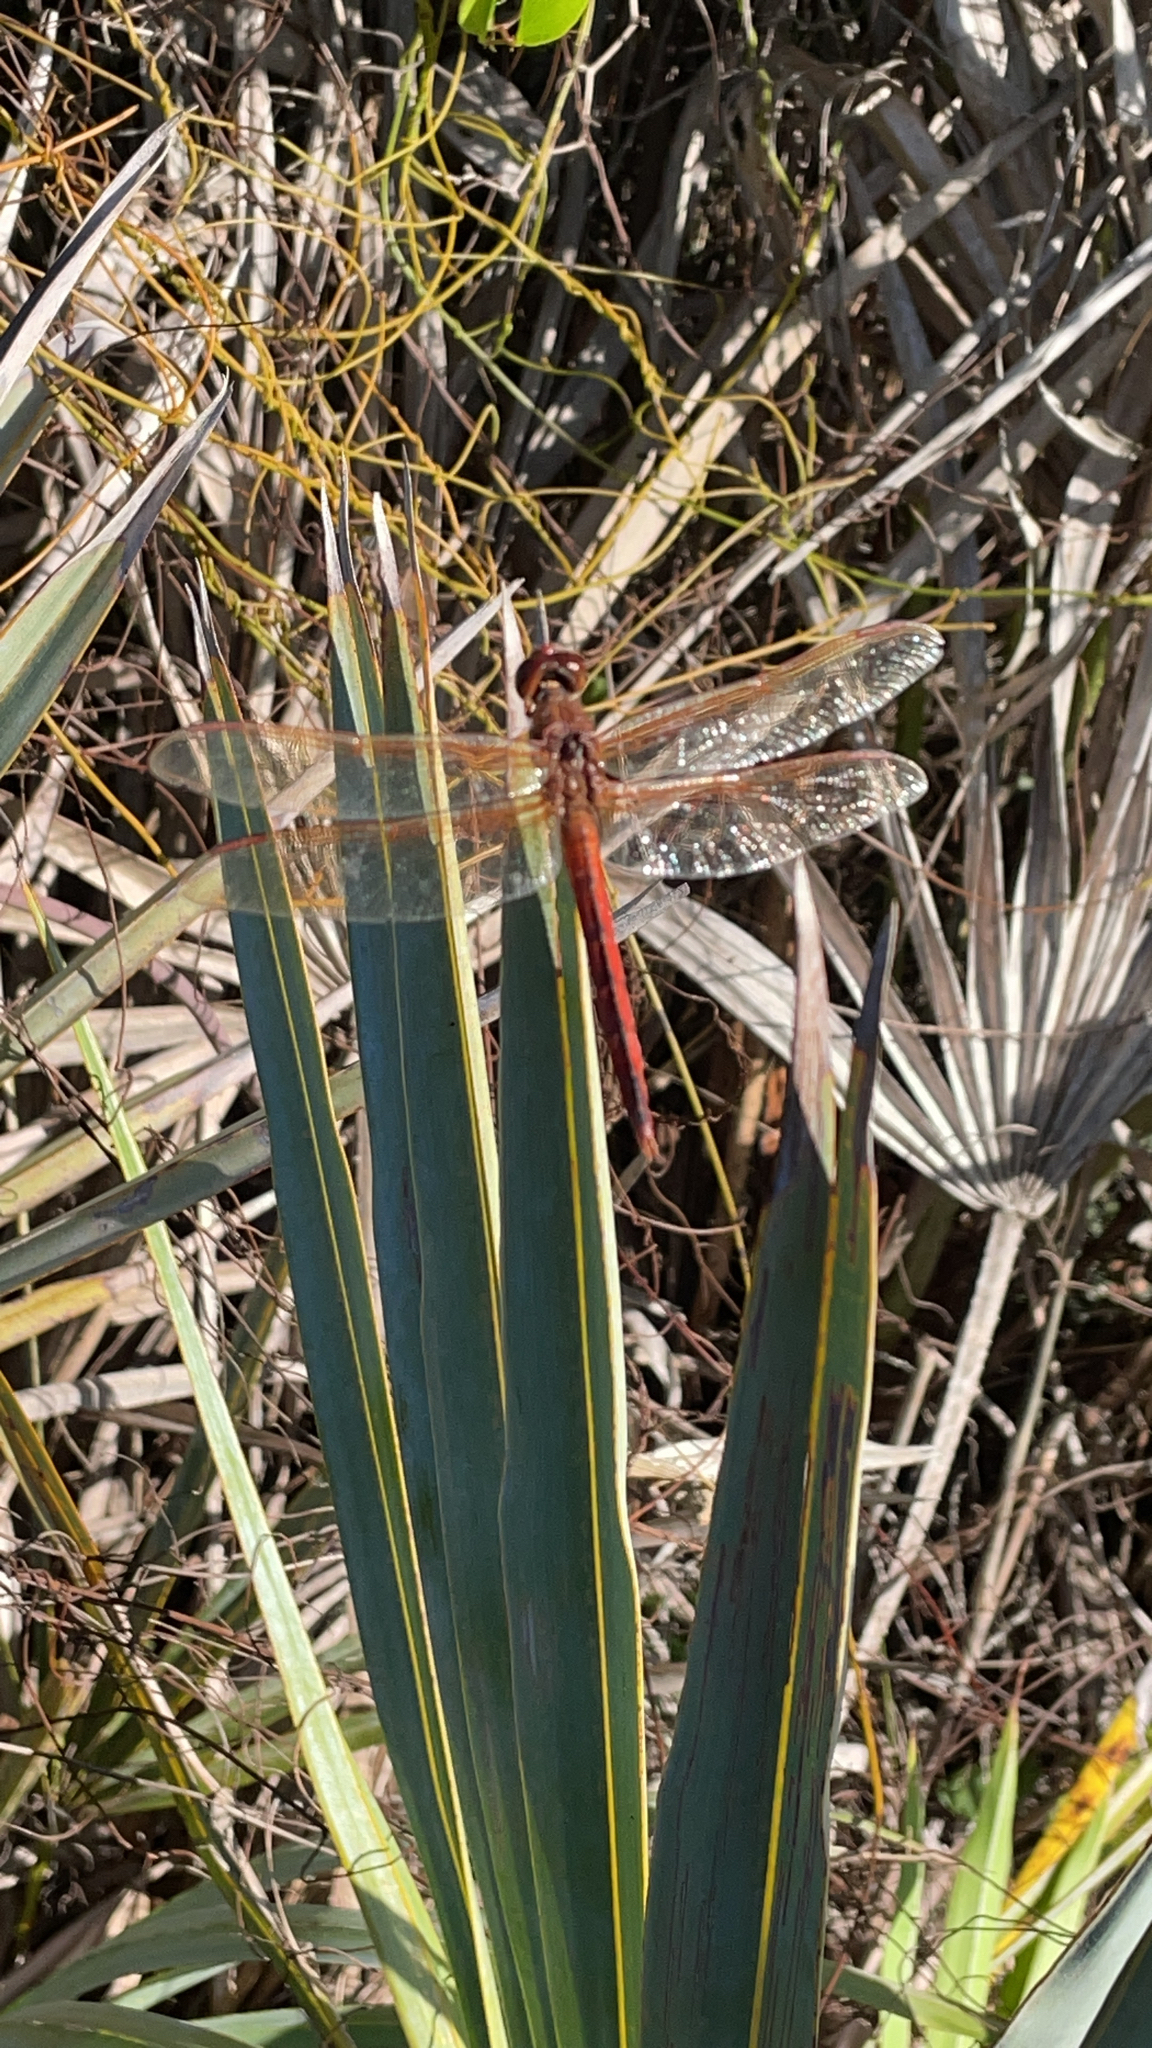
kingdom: Animalia
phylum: Arthropoda
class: Insecta
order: Odonata
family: Libellulidae
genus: Libellula
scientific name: Libellula needhami
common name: Needham's skimmer
